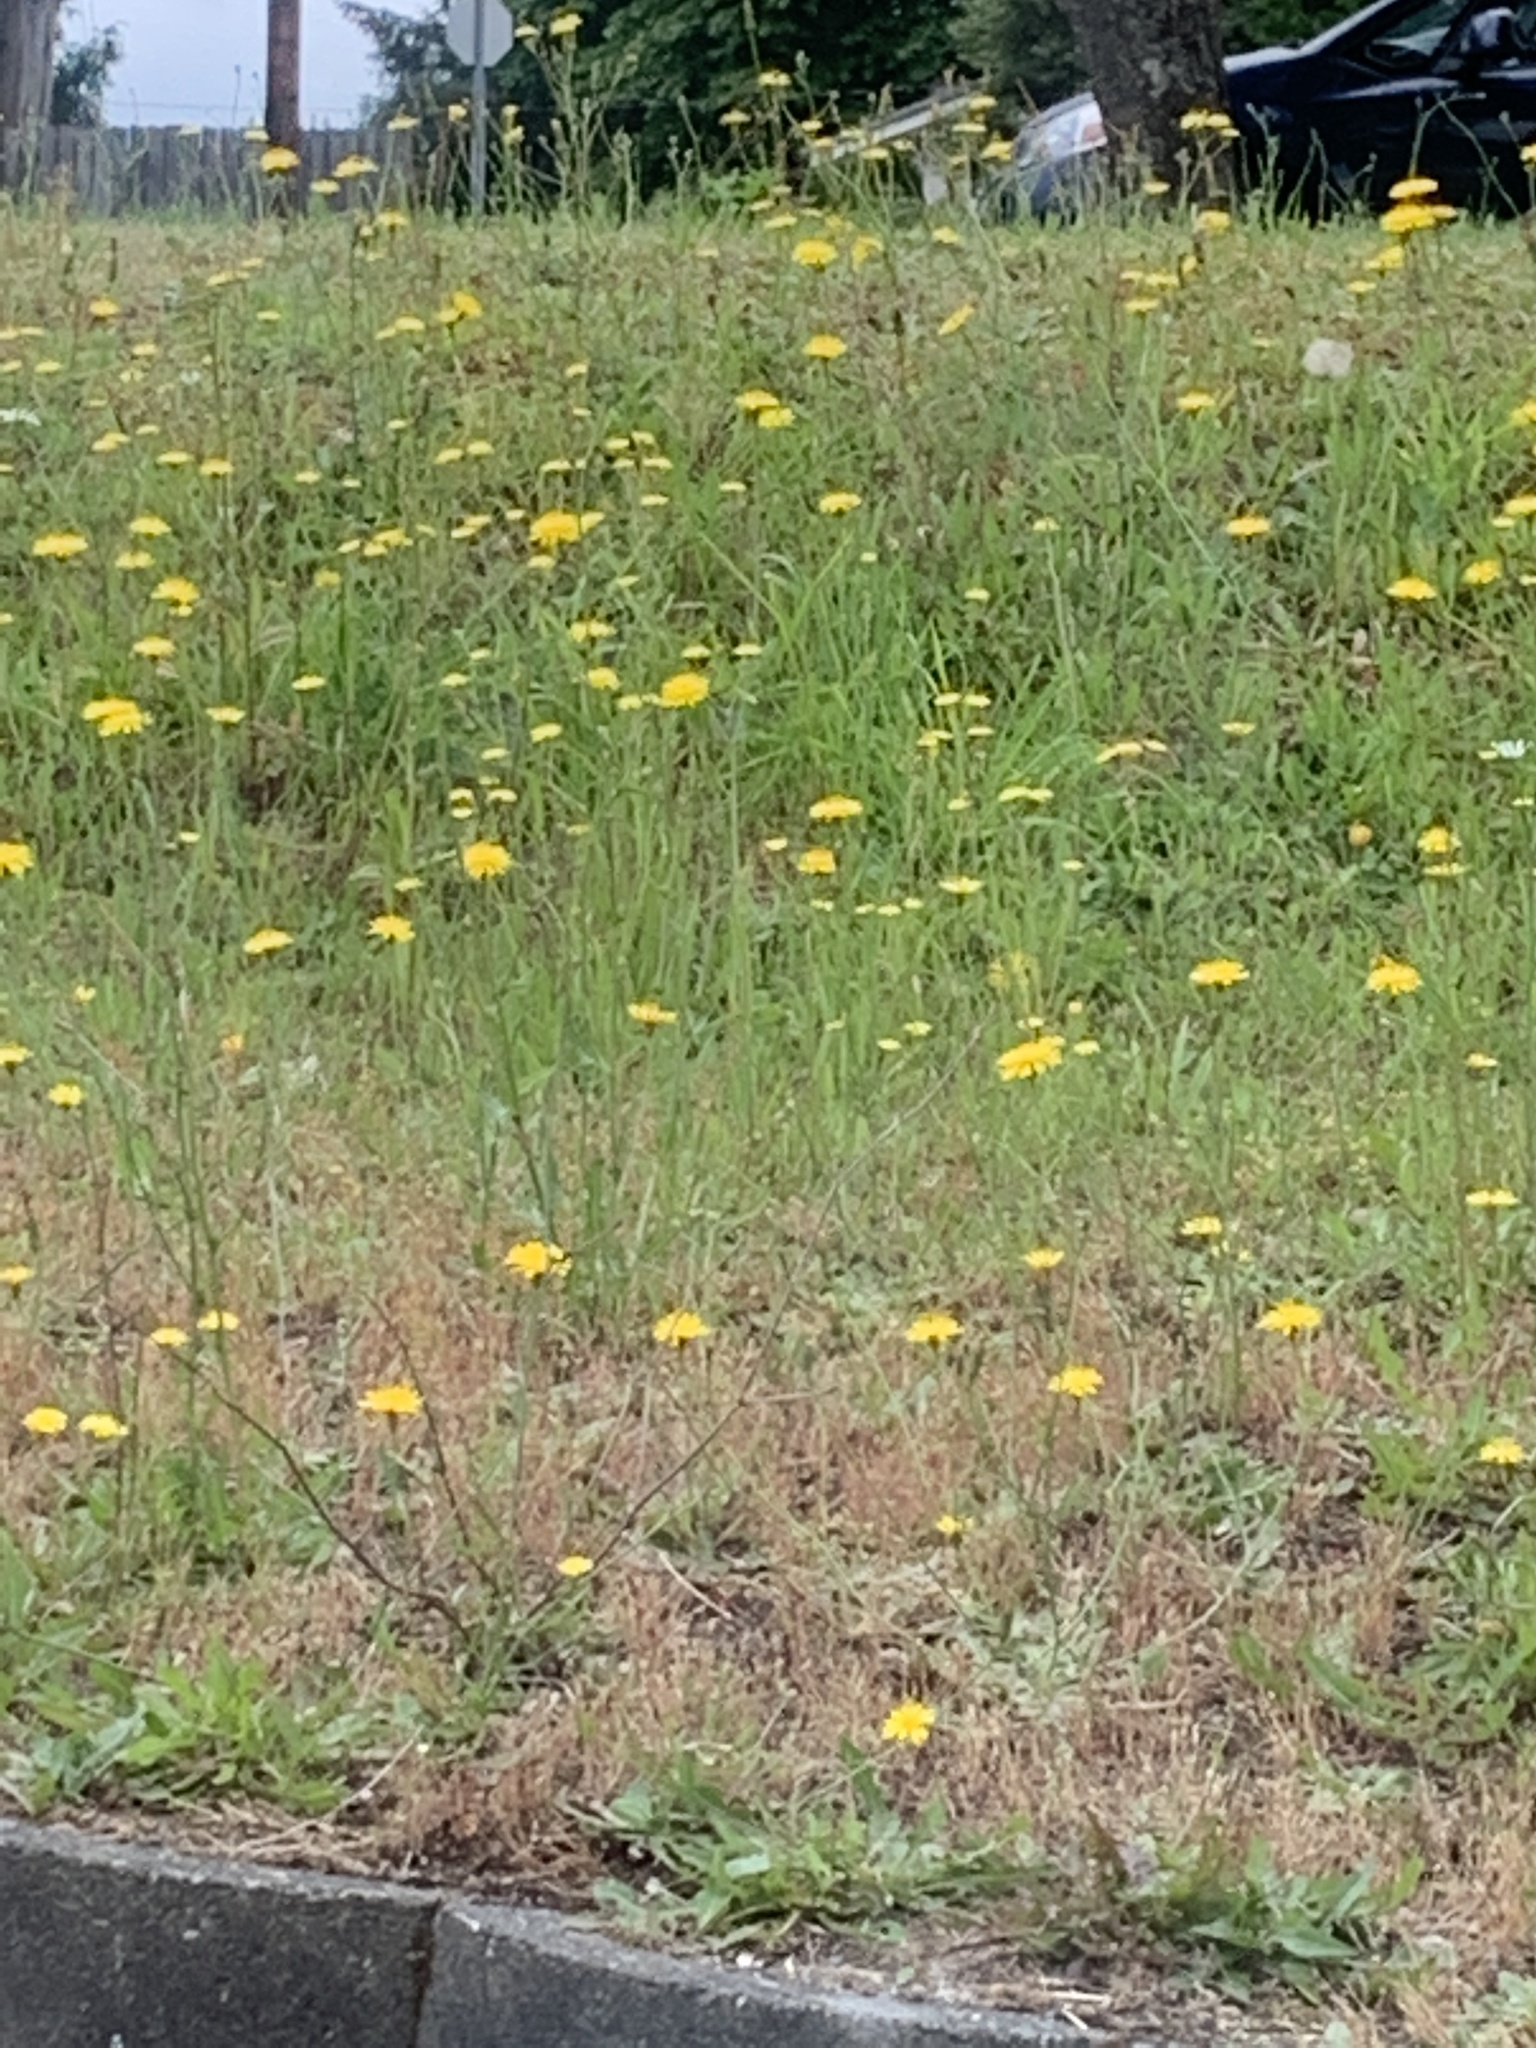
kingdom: Plantae
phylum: Tracheophyta
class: Magnoliopsida
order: Asterales
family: Asteraceae
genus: Hypochaeris
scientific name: Hypochaeris radicata
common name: Flatweed
